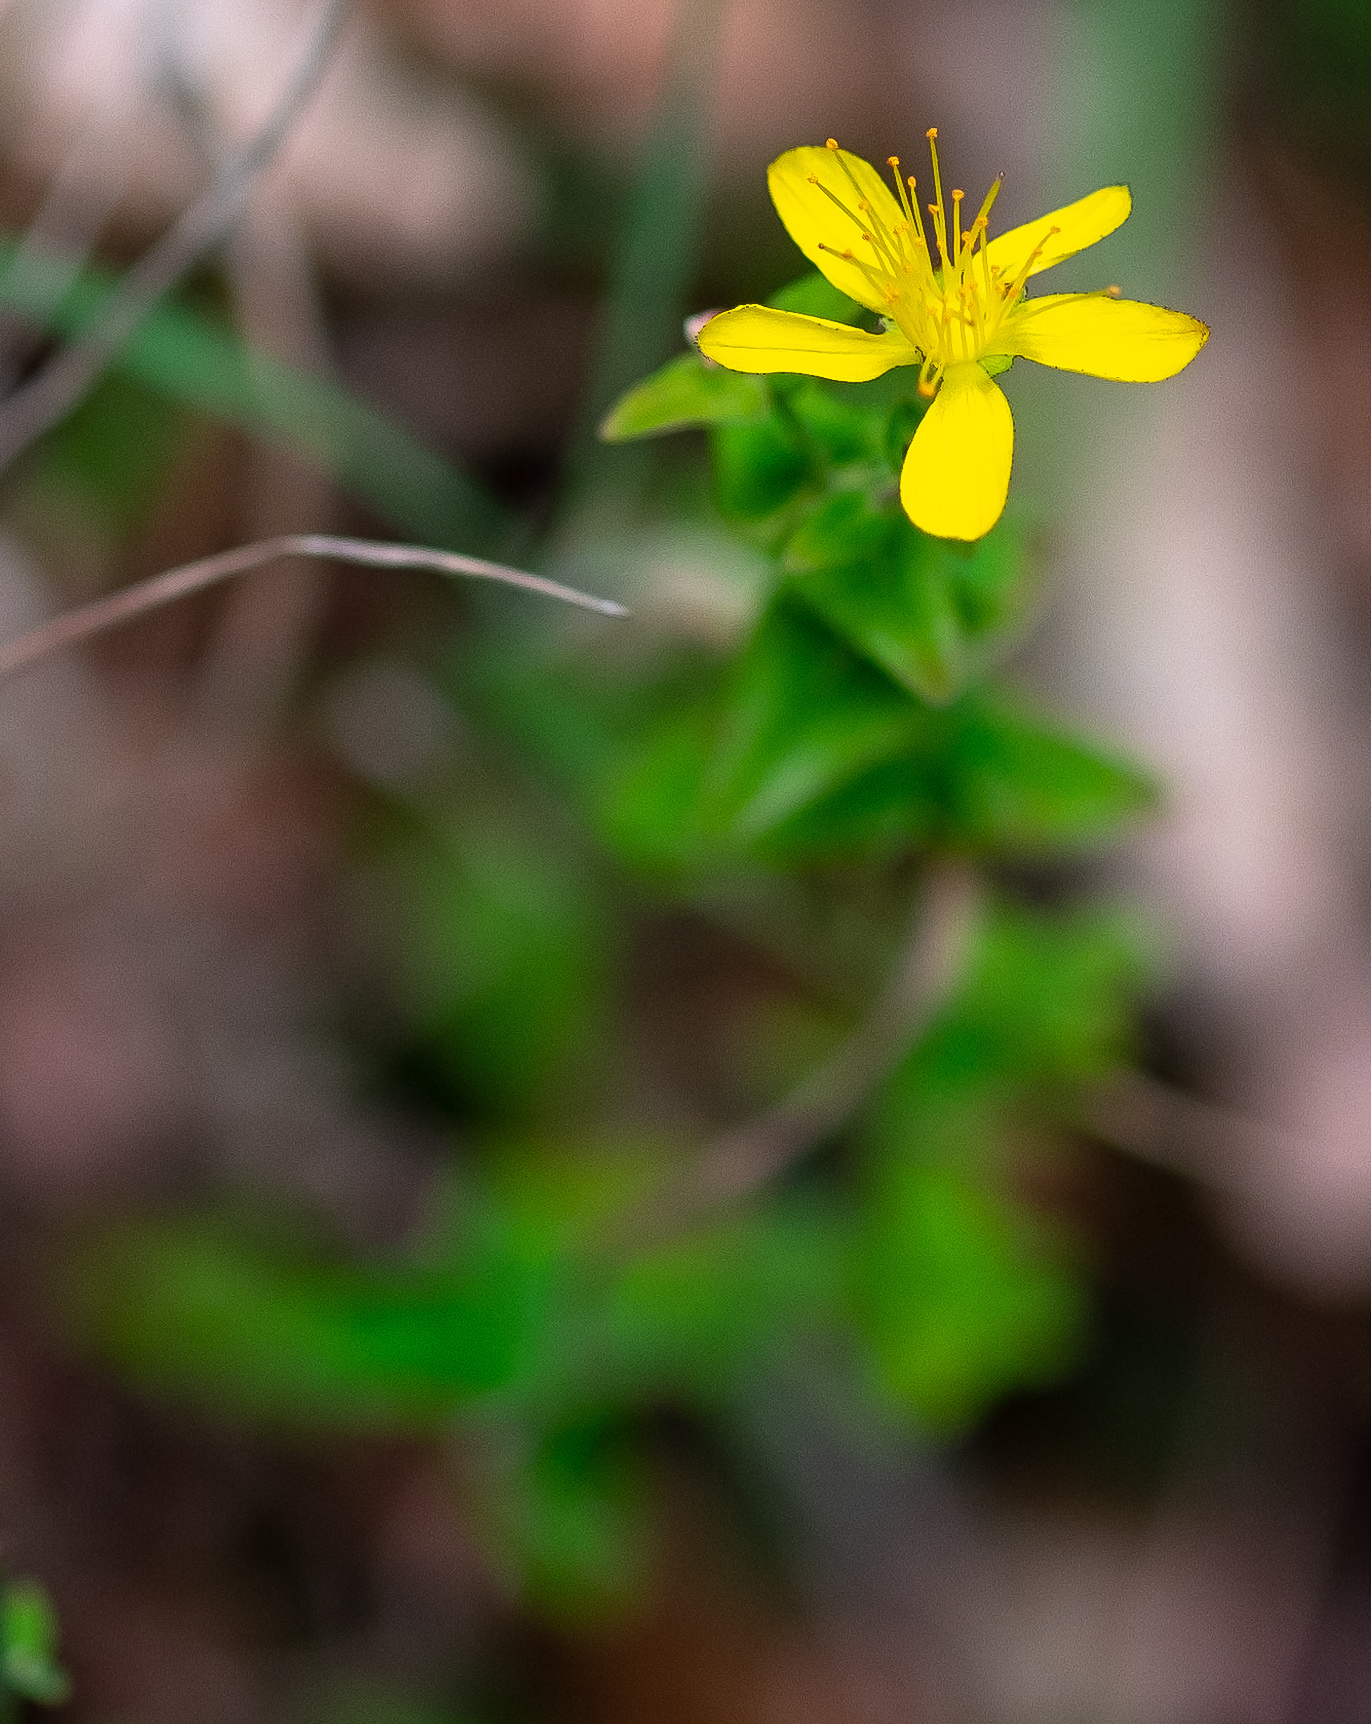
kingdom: Plantae
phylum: Tracheophyta
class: Magnoliopsida
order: Malpighiales
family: Hypericaceae
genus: Hypericum
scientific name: Hypericum pulchrum
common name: Slender st. john's-wort
